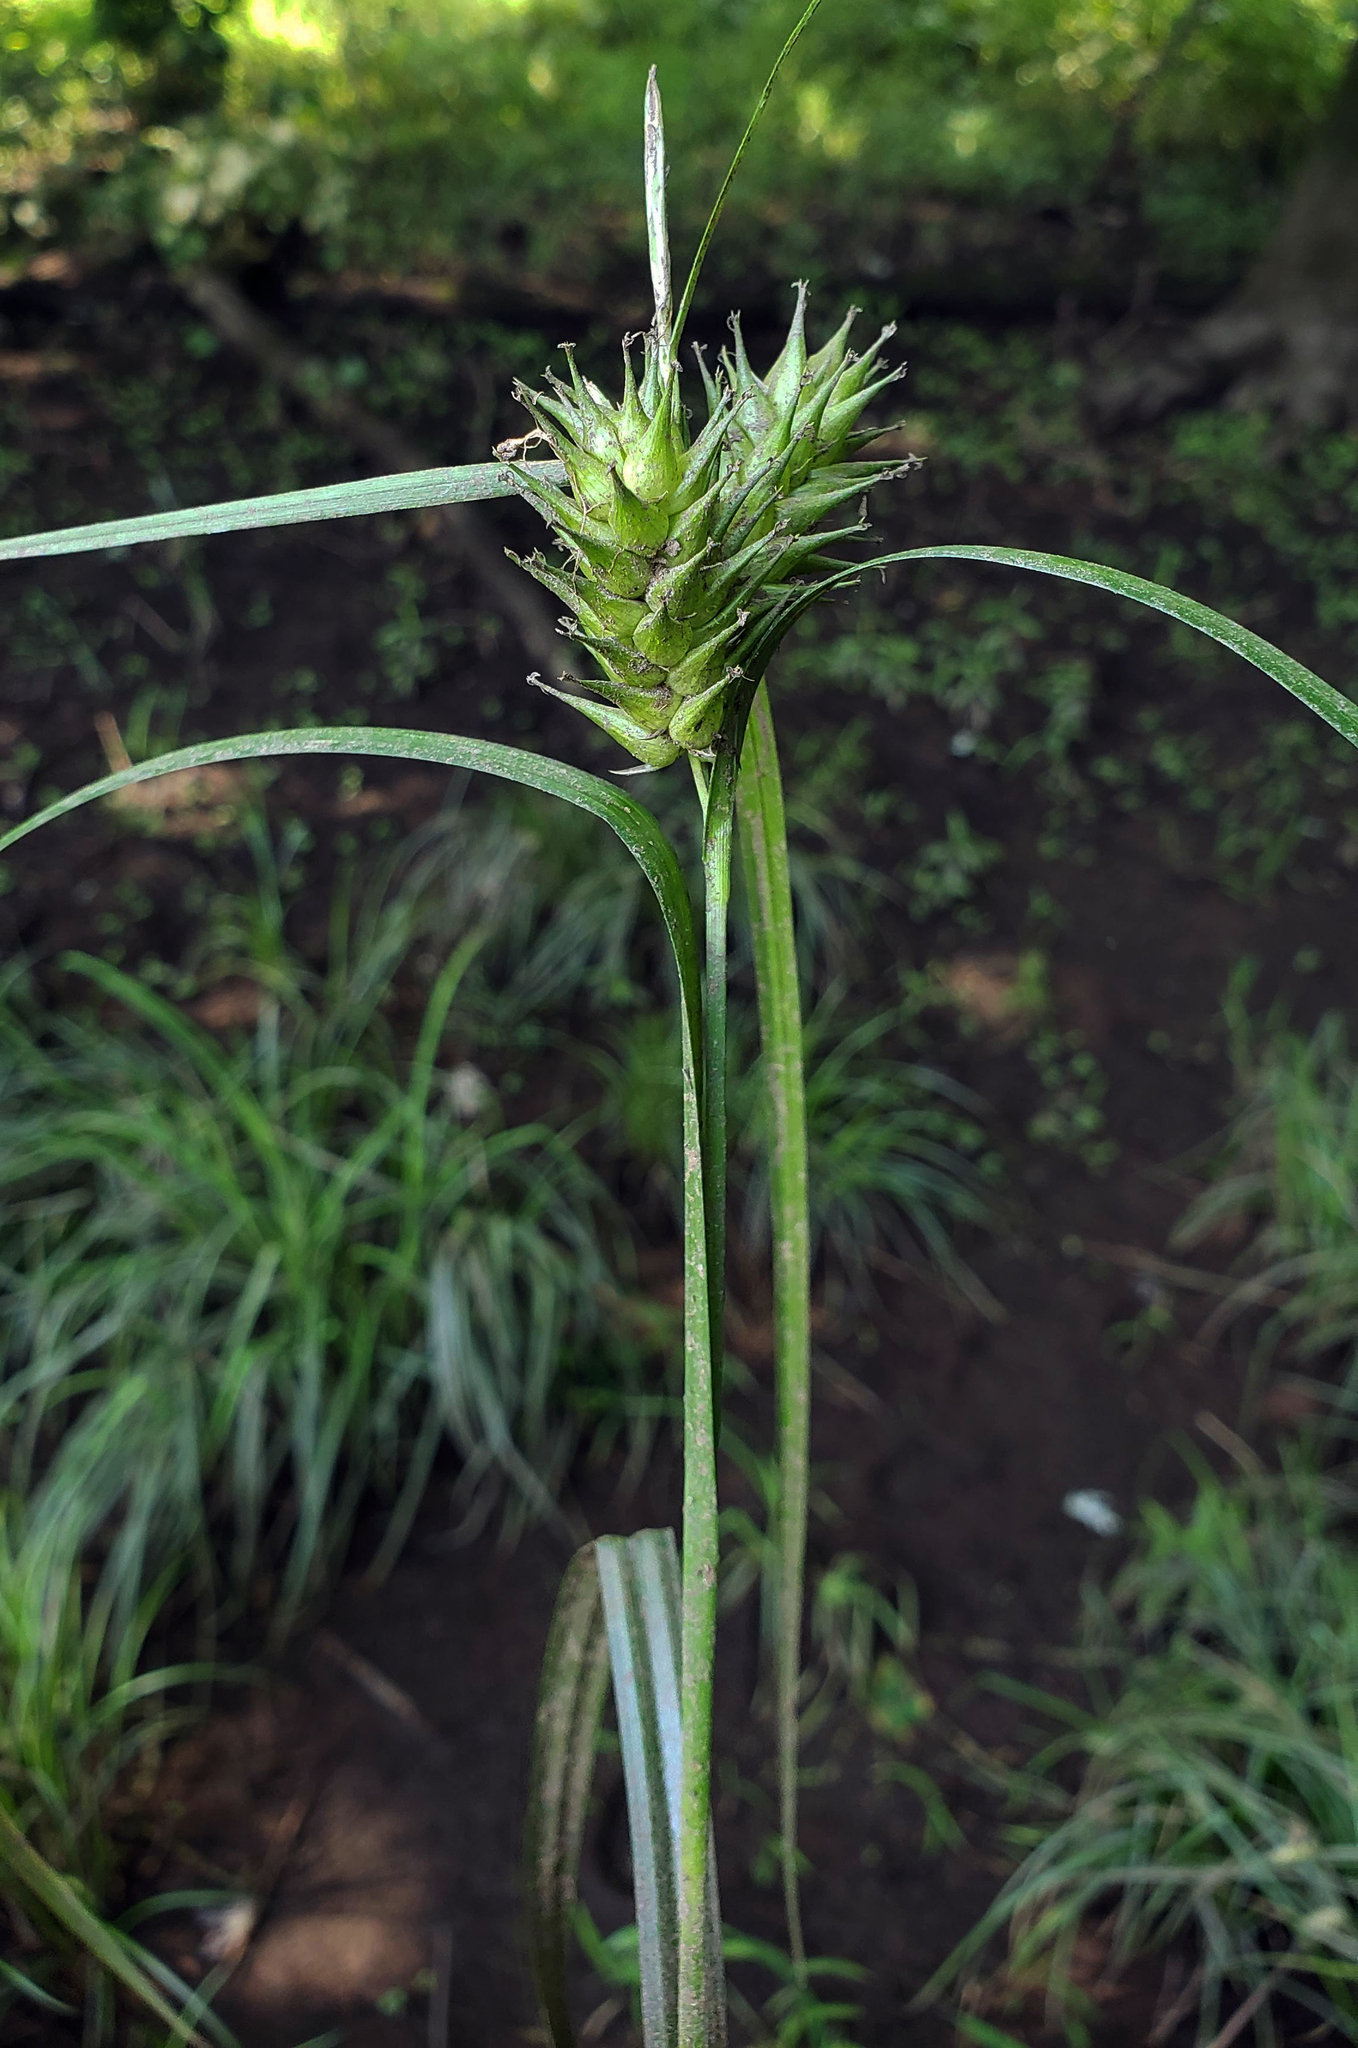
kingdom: Plantae
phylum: Tracheophyta
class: Liliopsida
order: Poales
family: Cyperaceae
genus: Carex
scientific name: Carex lupulina
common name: Hop sedge
